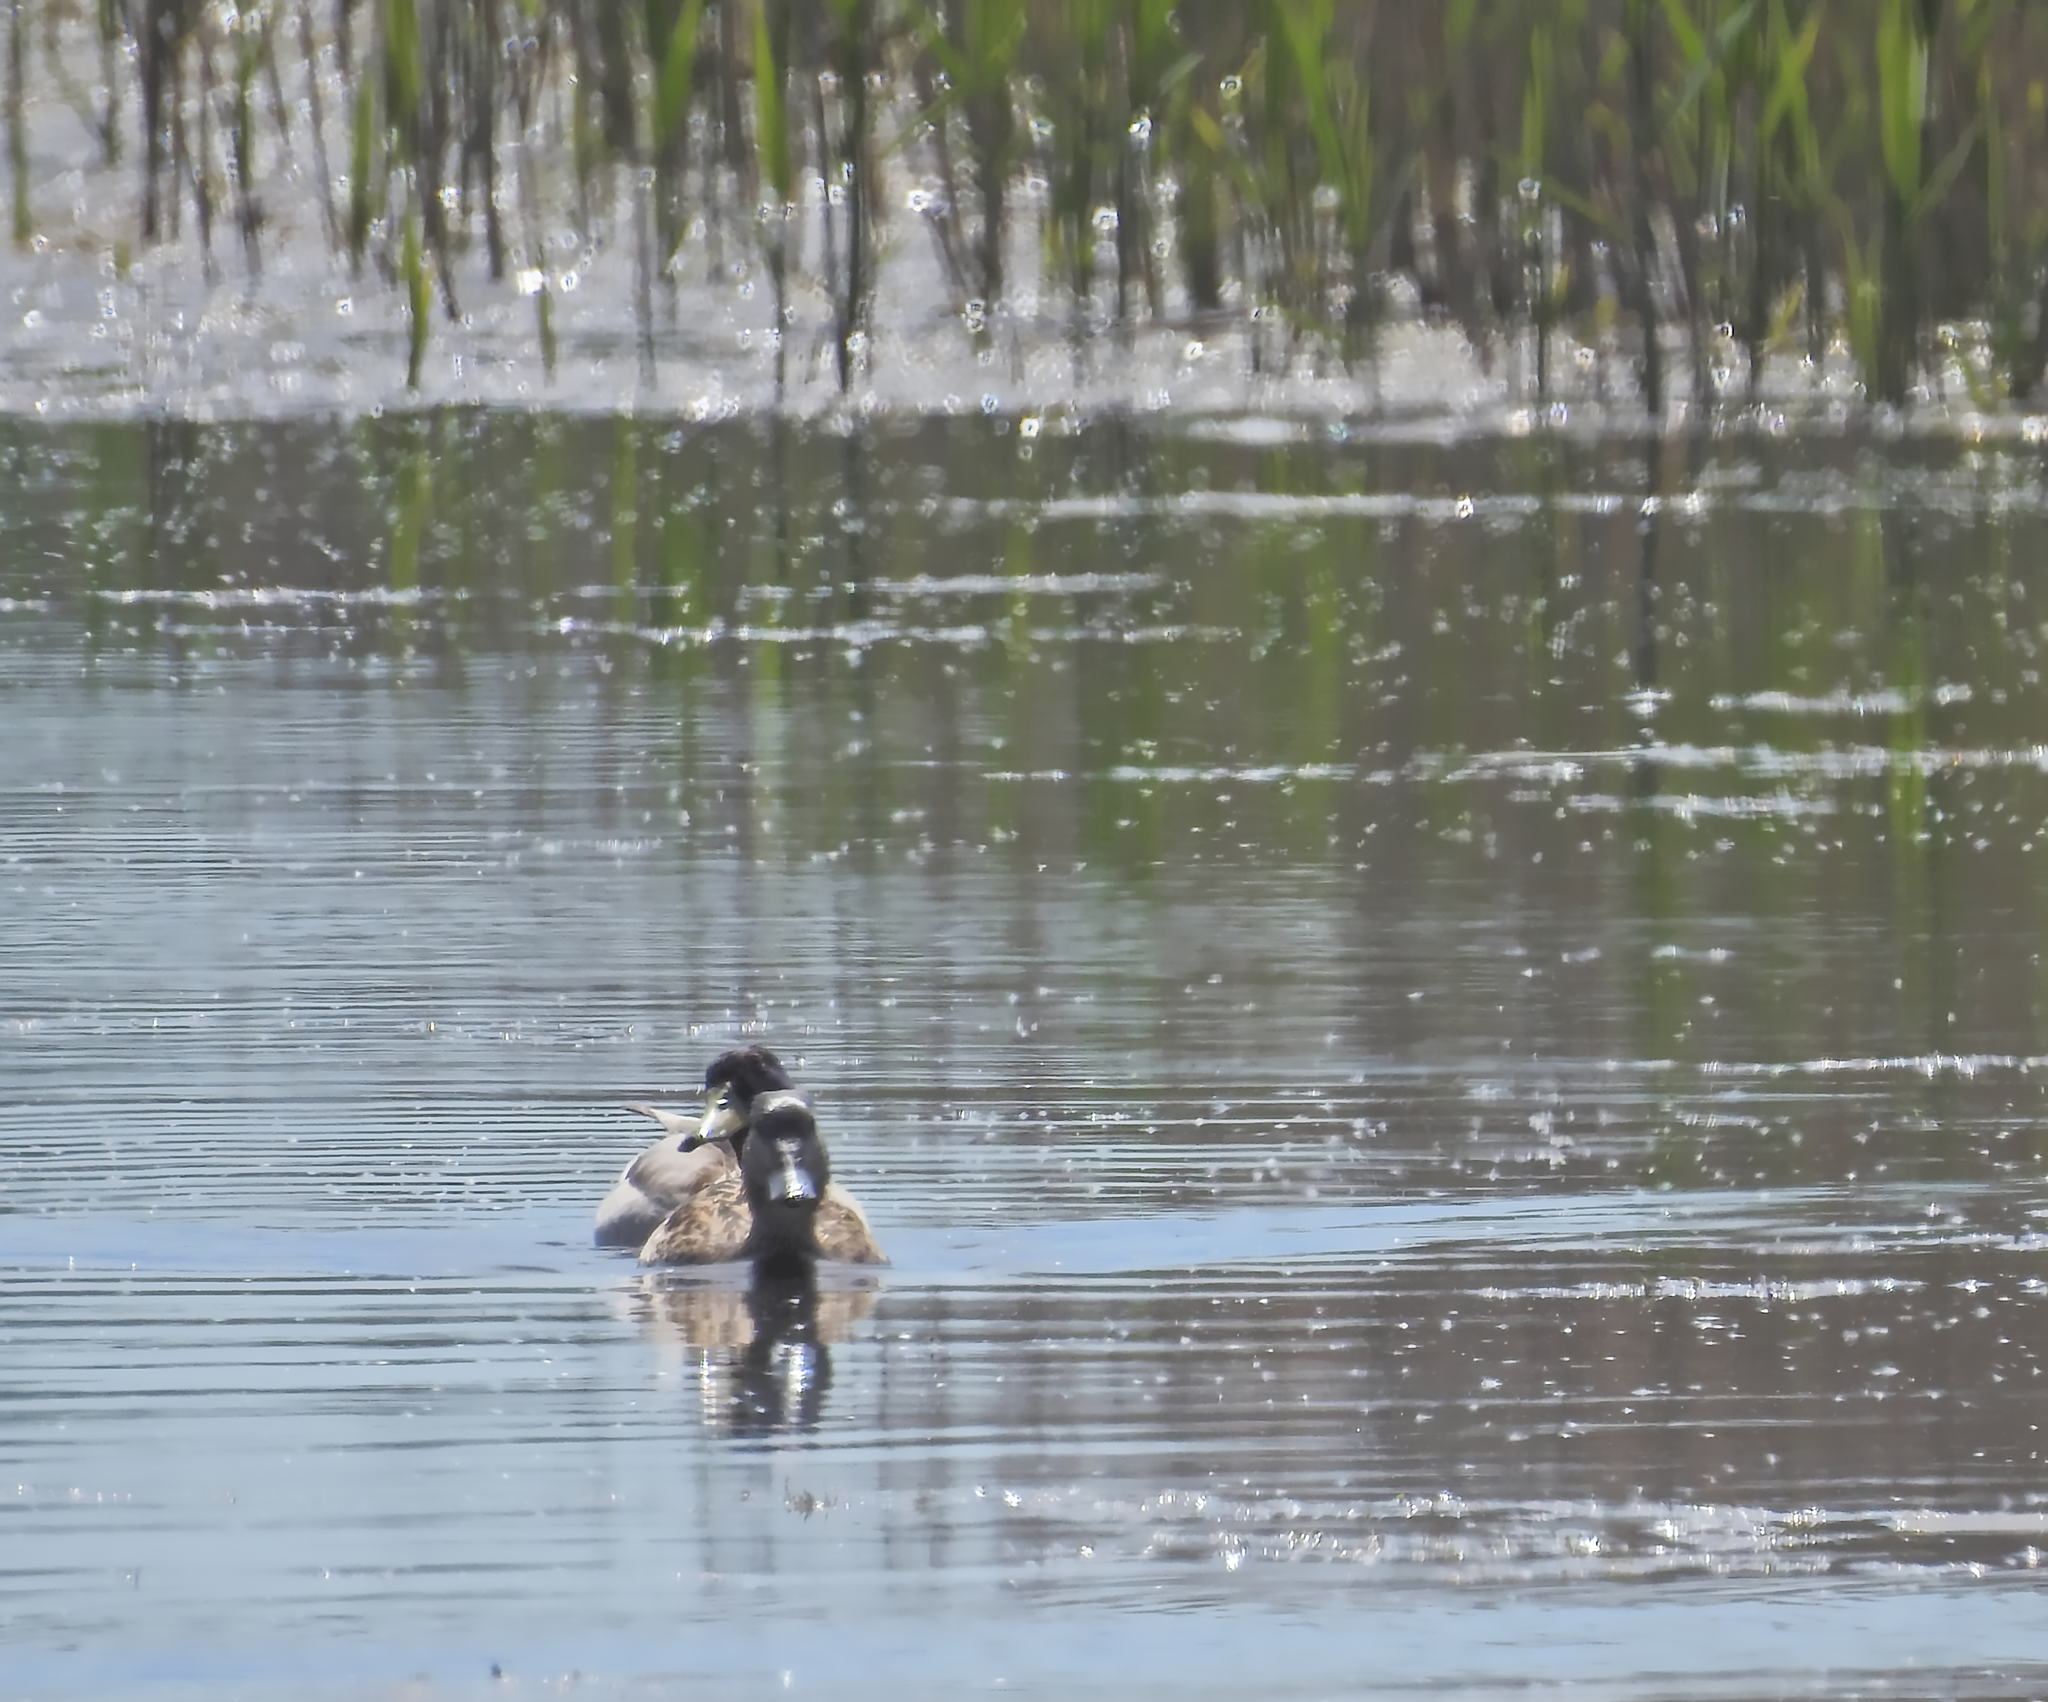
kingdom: Animalia
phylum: Chordata
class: Aves
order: Anseriformes
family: Anatidae
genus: Anas
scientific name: Anas platyrhynchos
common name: Mallard
